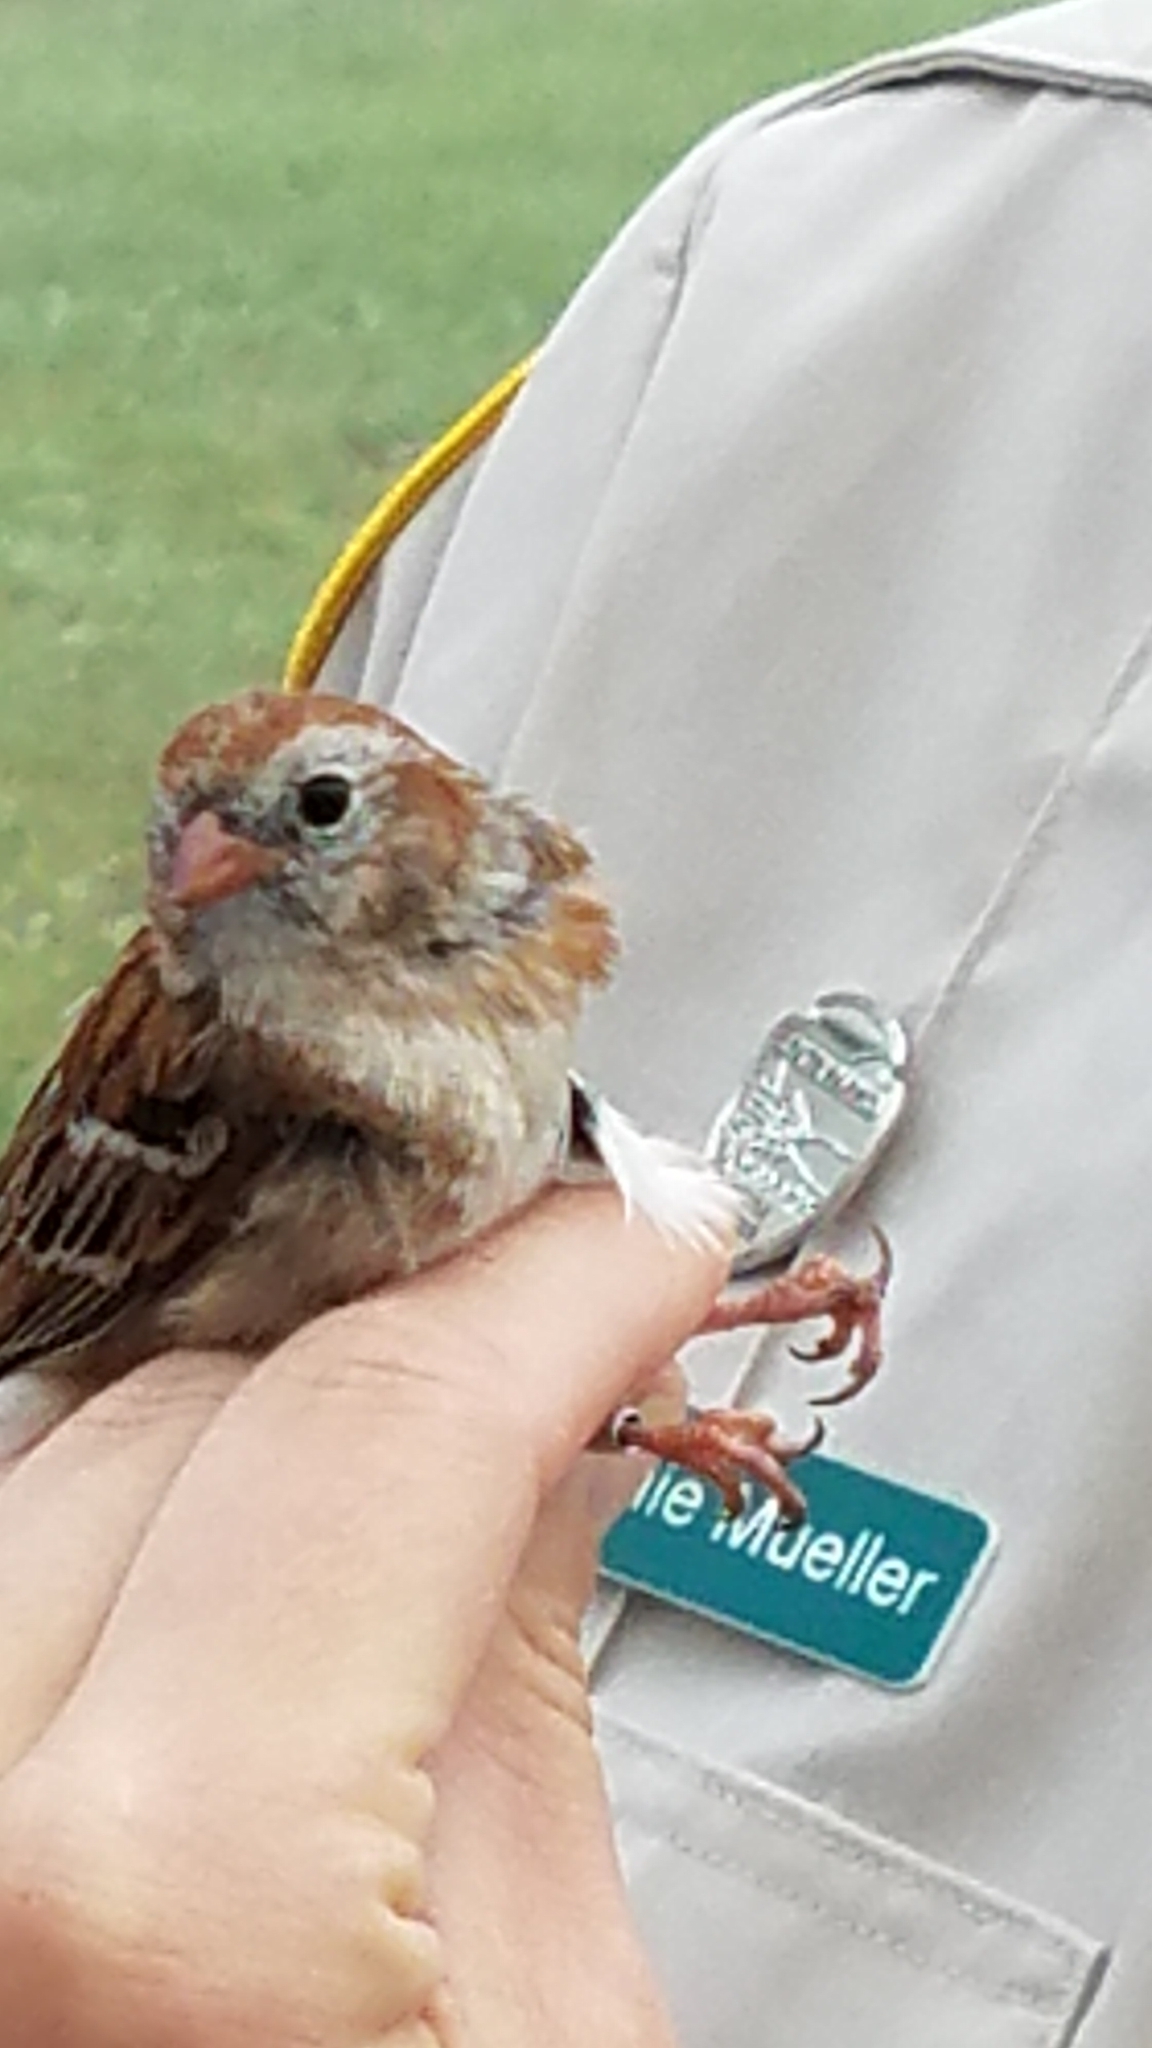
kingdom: Animalia
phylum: Chordata
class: Aves
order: Passeriformes
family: Passerellidae
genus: Spizella
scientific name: Spizella pusilla
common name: Field sparrow
